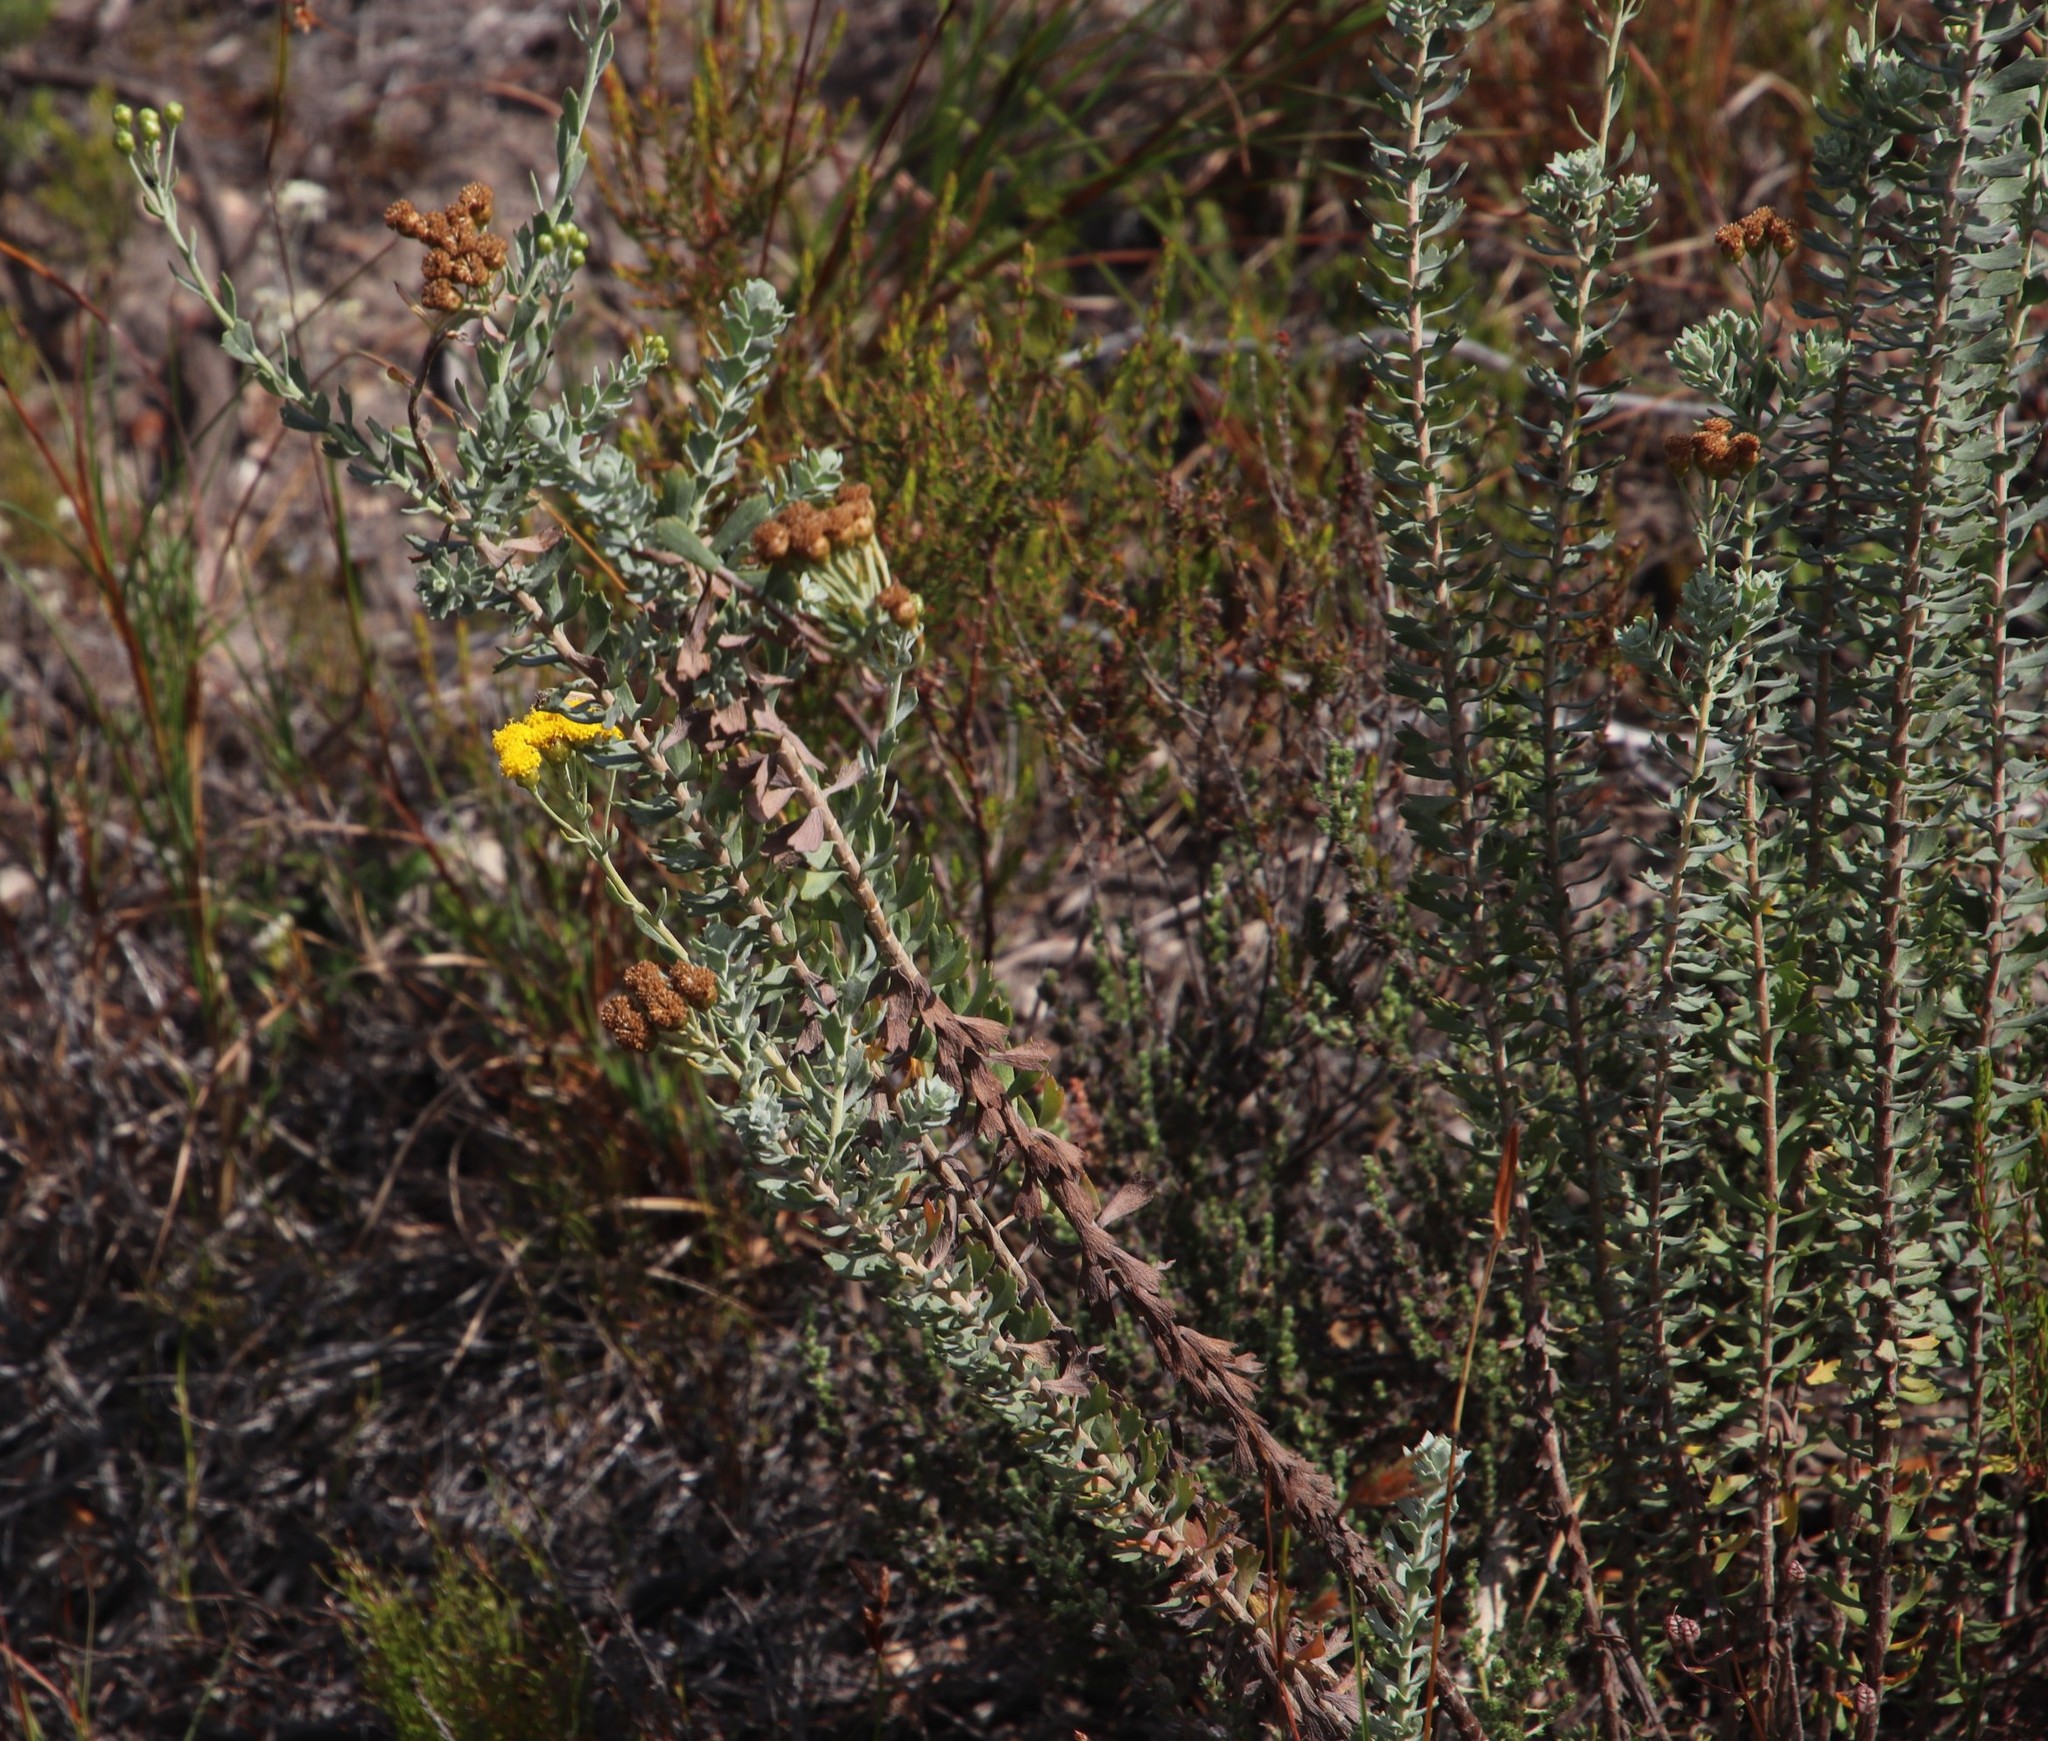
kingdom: Plantae
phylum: Tracheophyta
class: Magnoliopsida
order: Asterales
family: Asteraceae
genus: Athanasia
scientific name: Athanasia trifurcata
